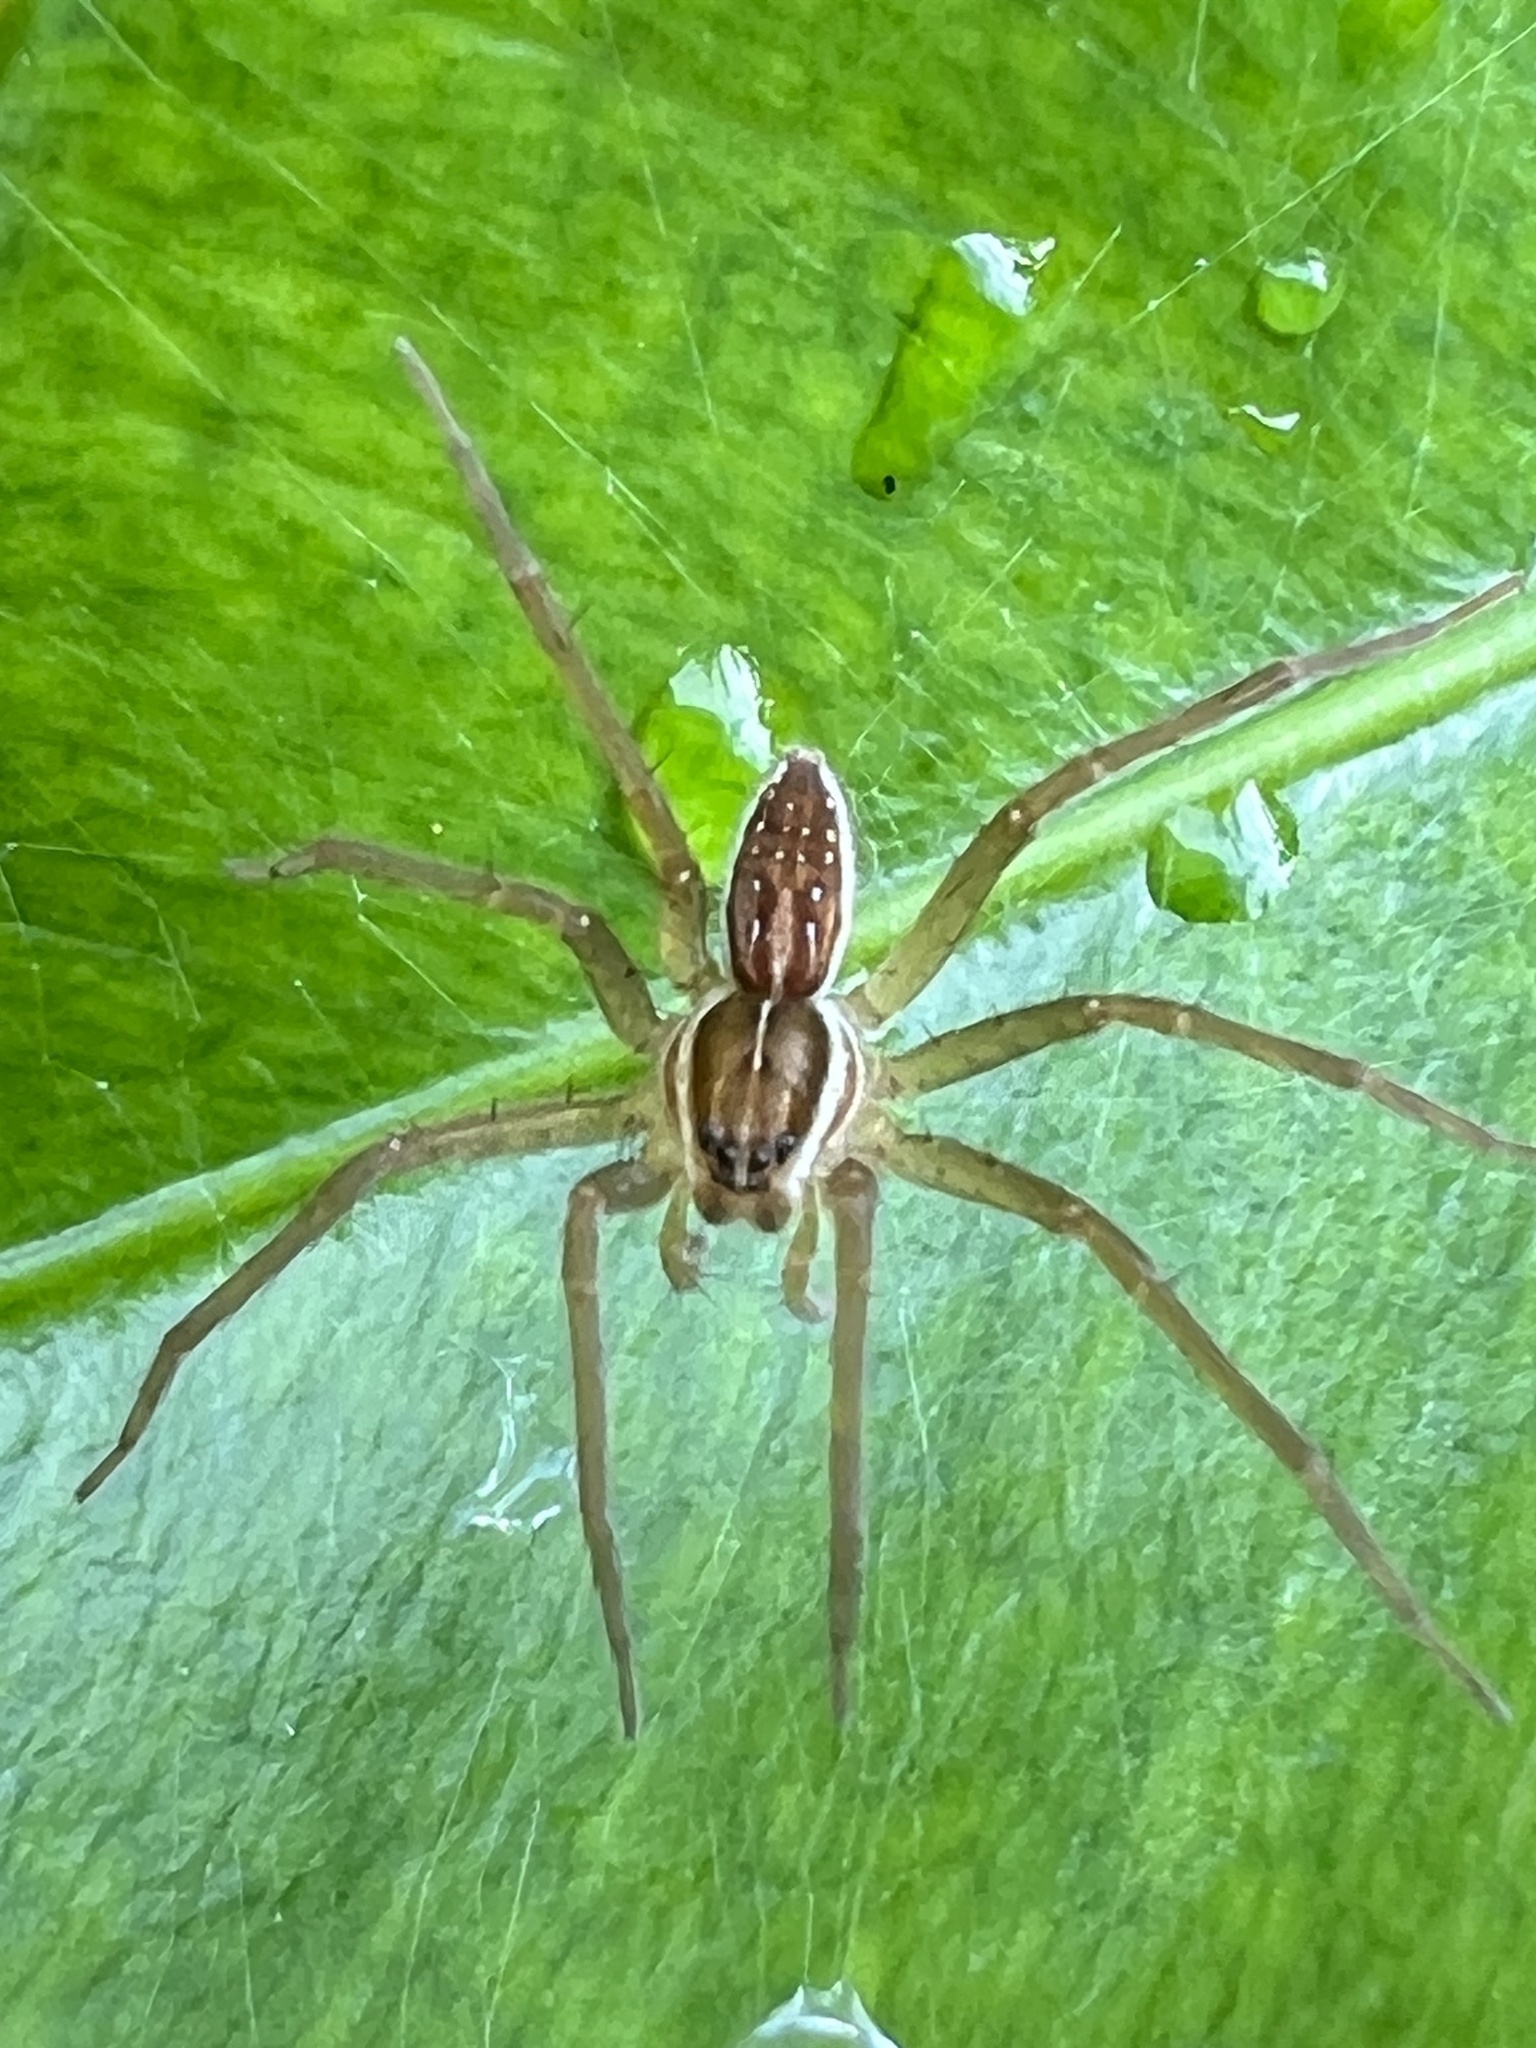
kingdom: Animalia
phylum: Arthropoda
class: Arachnida
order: Araneae
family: Pisauridae
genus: Dolomedes
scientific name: Dolomedes facetus
